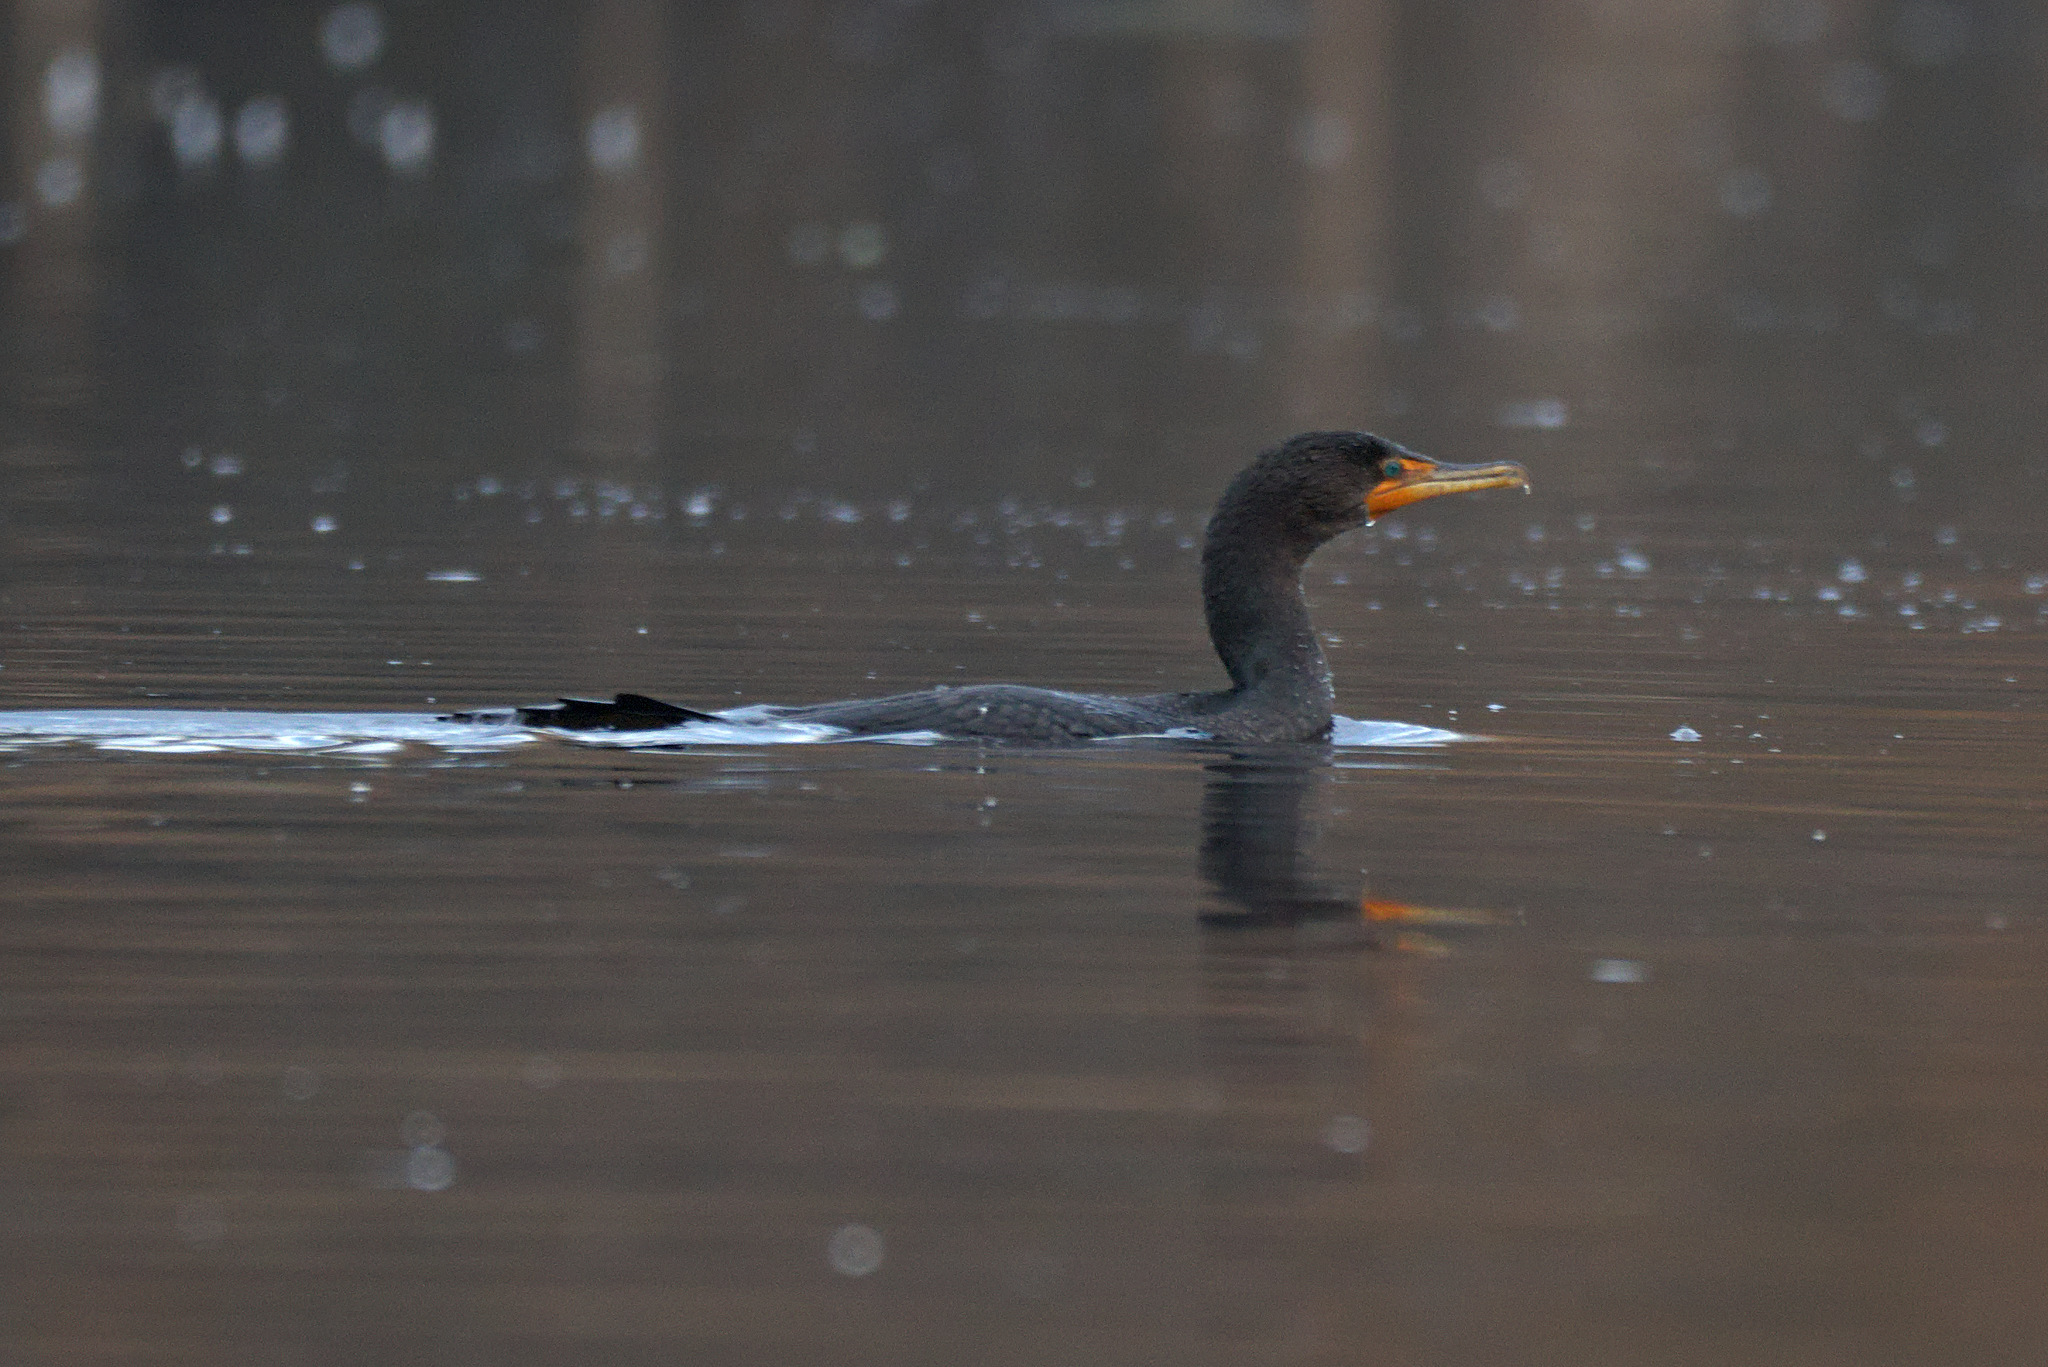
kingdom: Animalia
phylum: Chordata
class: Aves
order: Suliformes
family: Phalacrocoracidae
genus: Phalacrocorax
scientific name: Phalacrocorax auritus
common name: Double-crested cormorant
